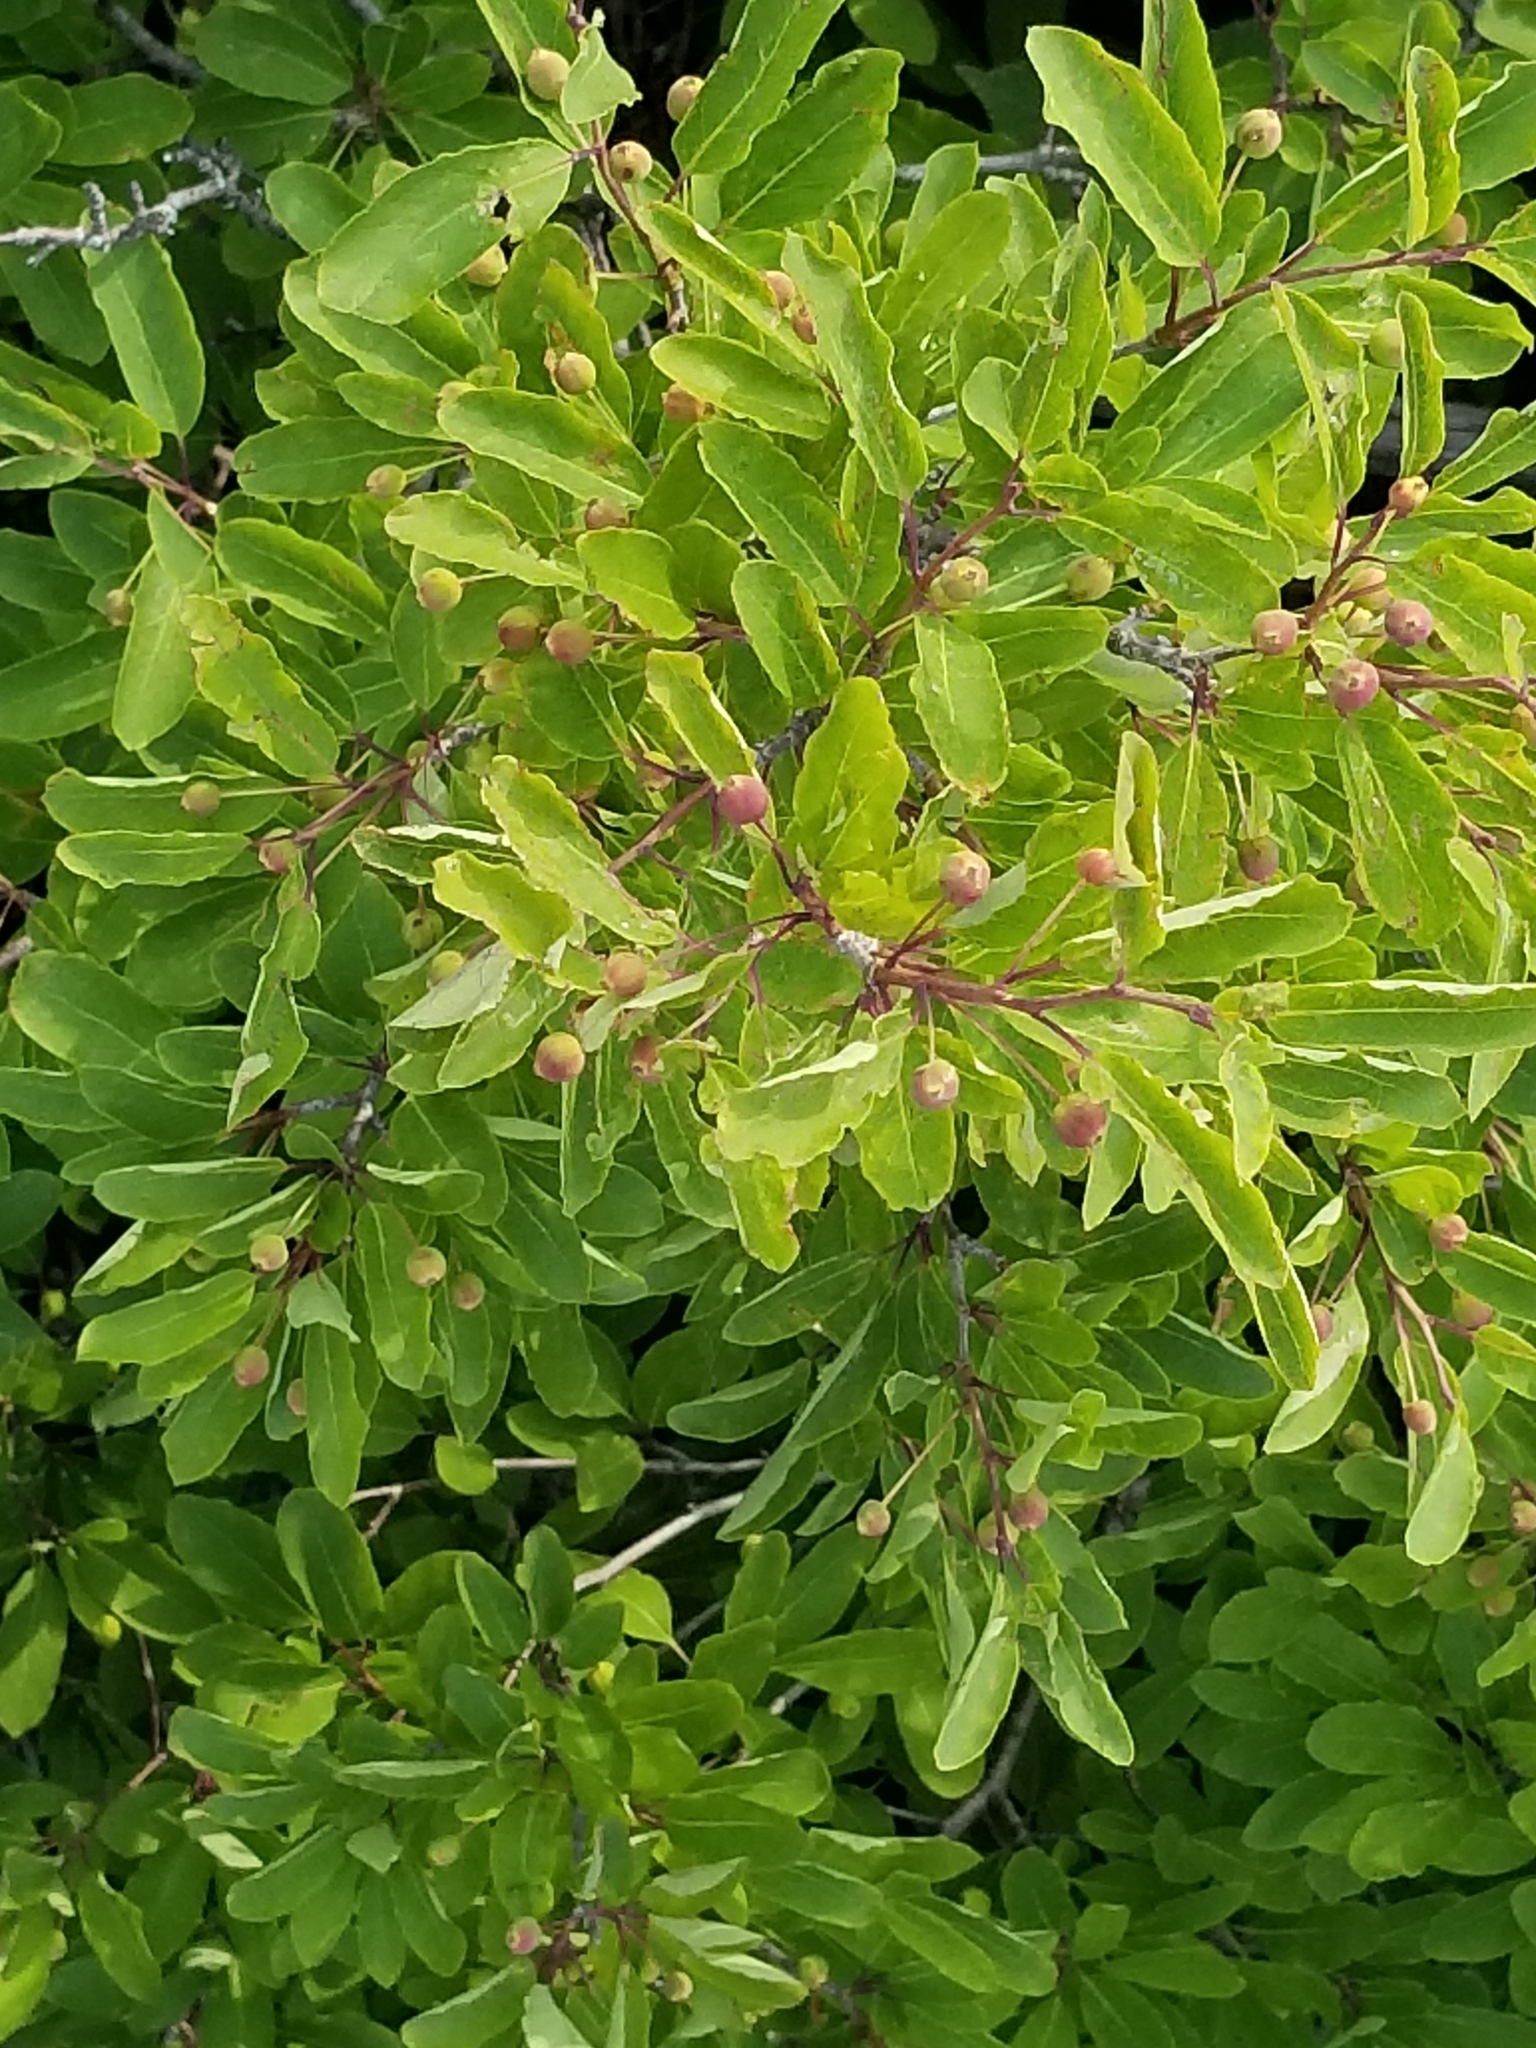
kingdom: Plantae
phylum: Tracheophyta
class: Magnoliopsida
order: Aquifoliales
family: Aquifoliaceae
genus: Ilex
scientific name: Ilex mucronata
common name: Catberry
